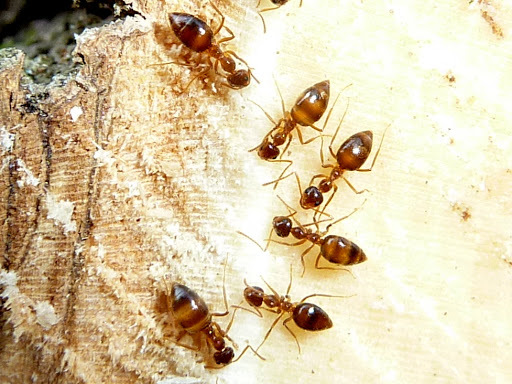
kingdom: Animalia
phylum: Arthropoda
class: Insecta
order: Hymenoptera
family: Formicidae
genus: Prenolepis
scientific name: Prenolepis imparis
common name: Small honey ant
